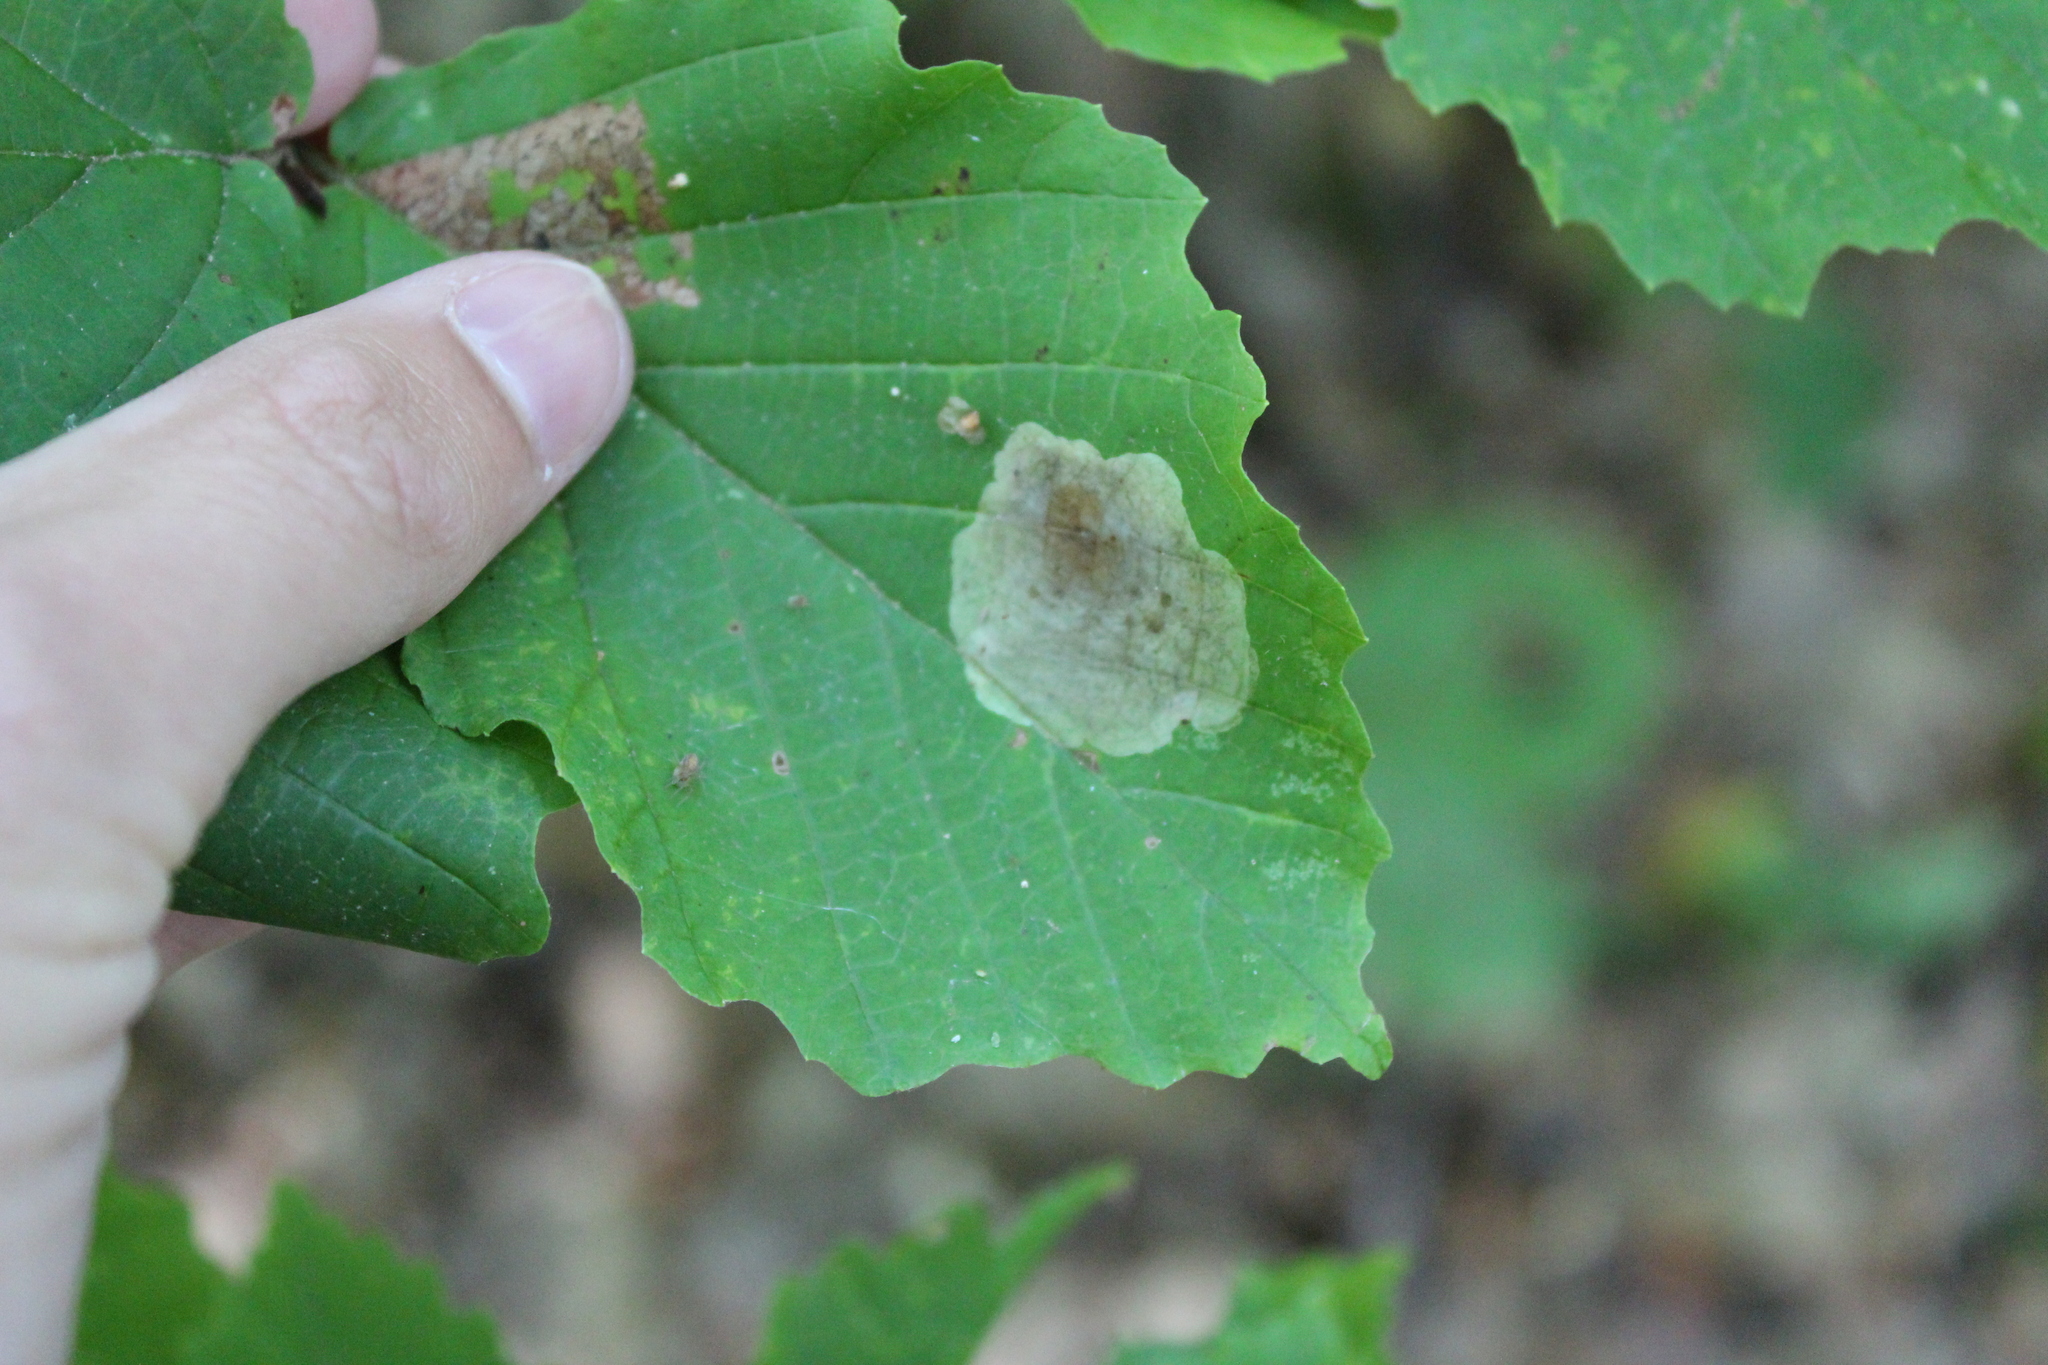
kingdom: Animalia
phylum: Arthropoda
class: Insecta
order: Lepidoptera
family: Gracillariidae
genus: Cameraria
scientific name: Cameraria hamameliella
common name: Witchhazel leafminer
